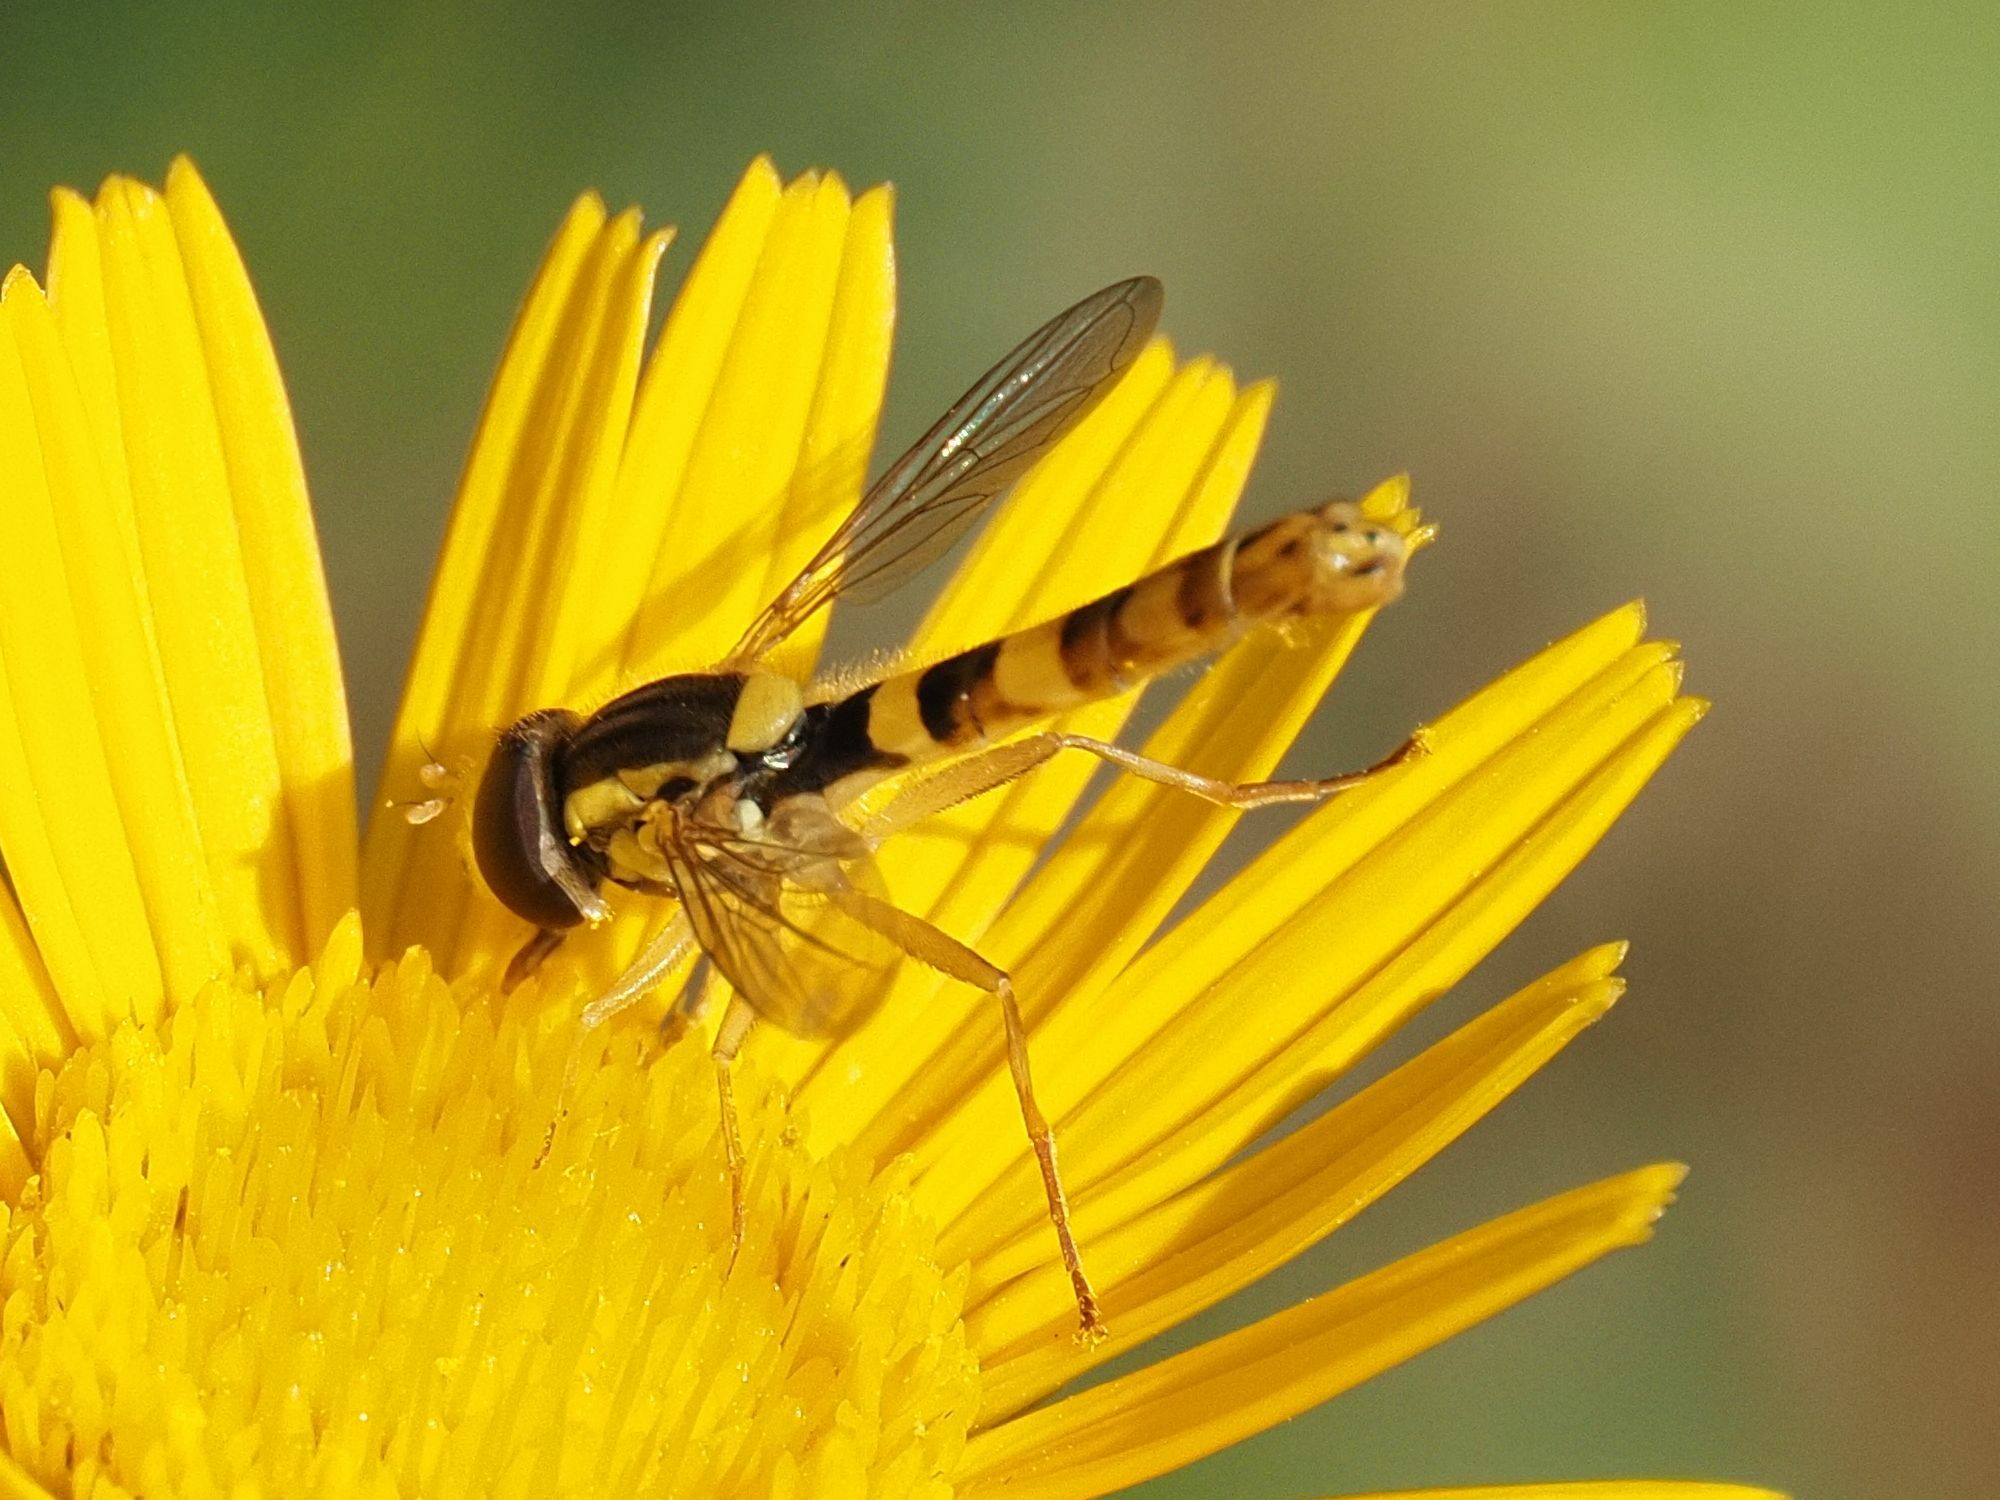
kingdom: Animalia
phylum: Arthropoda
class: Insecta
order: Diptera
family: Syrphidae
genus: Sphaerophoria
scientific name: Sphaerophoria scripta
